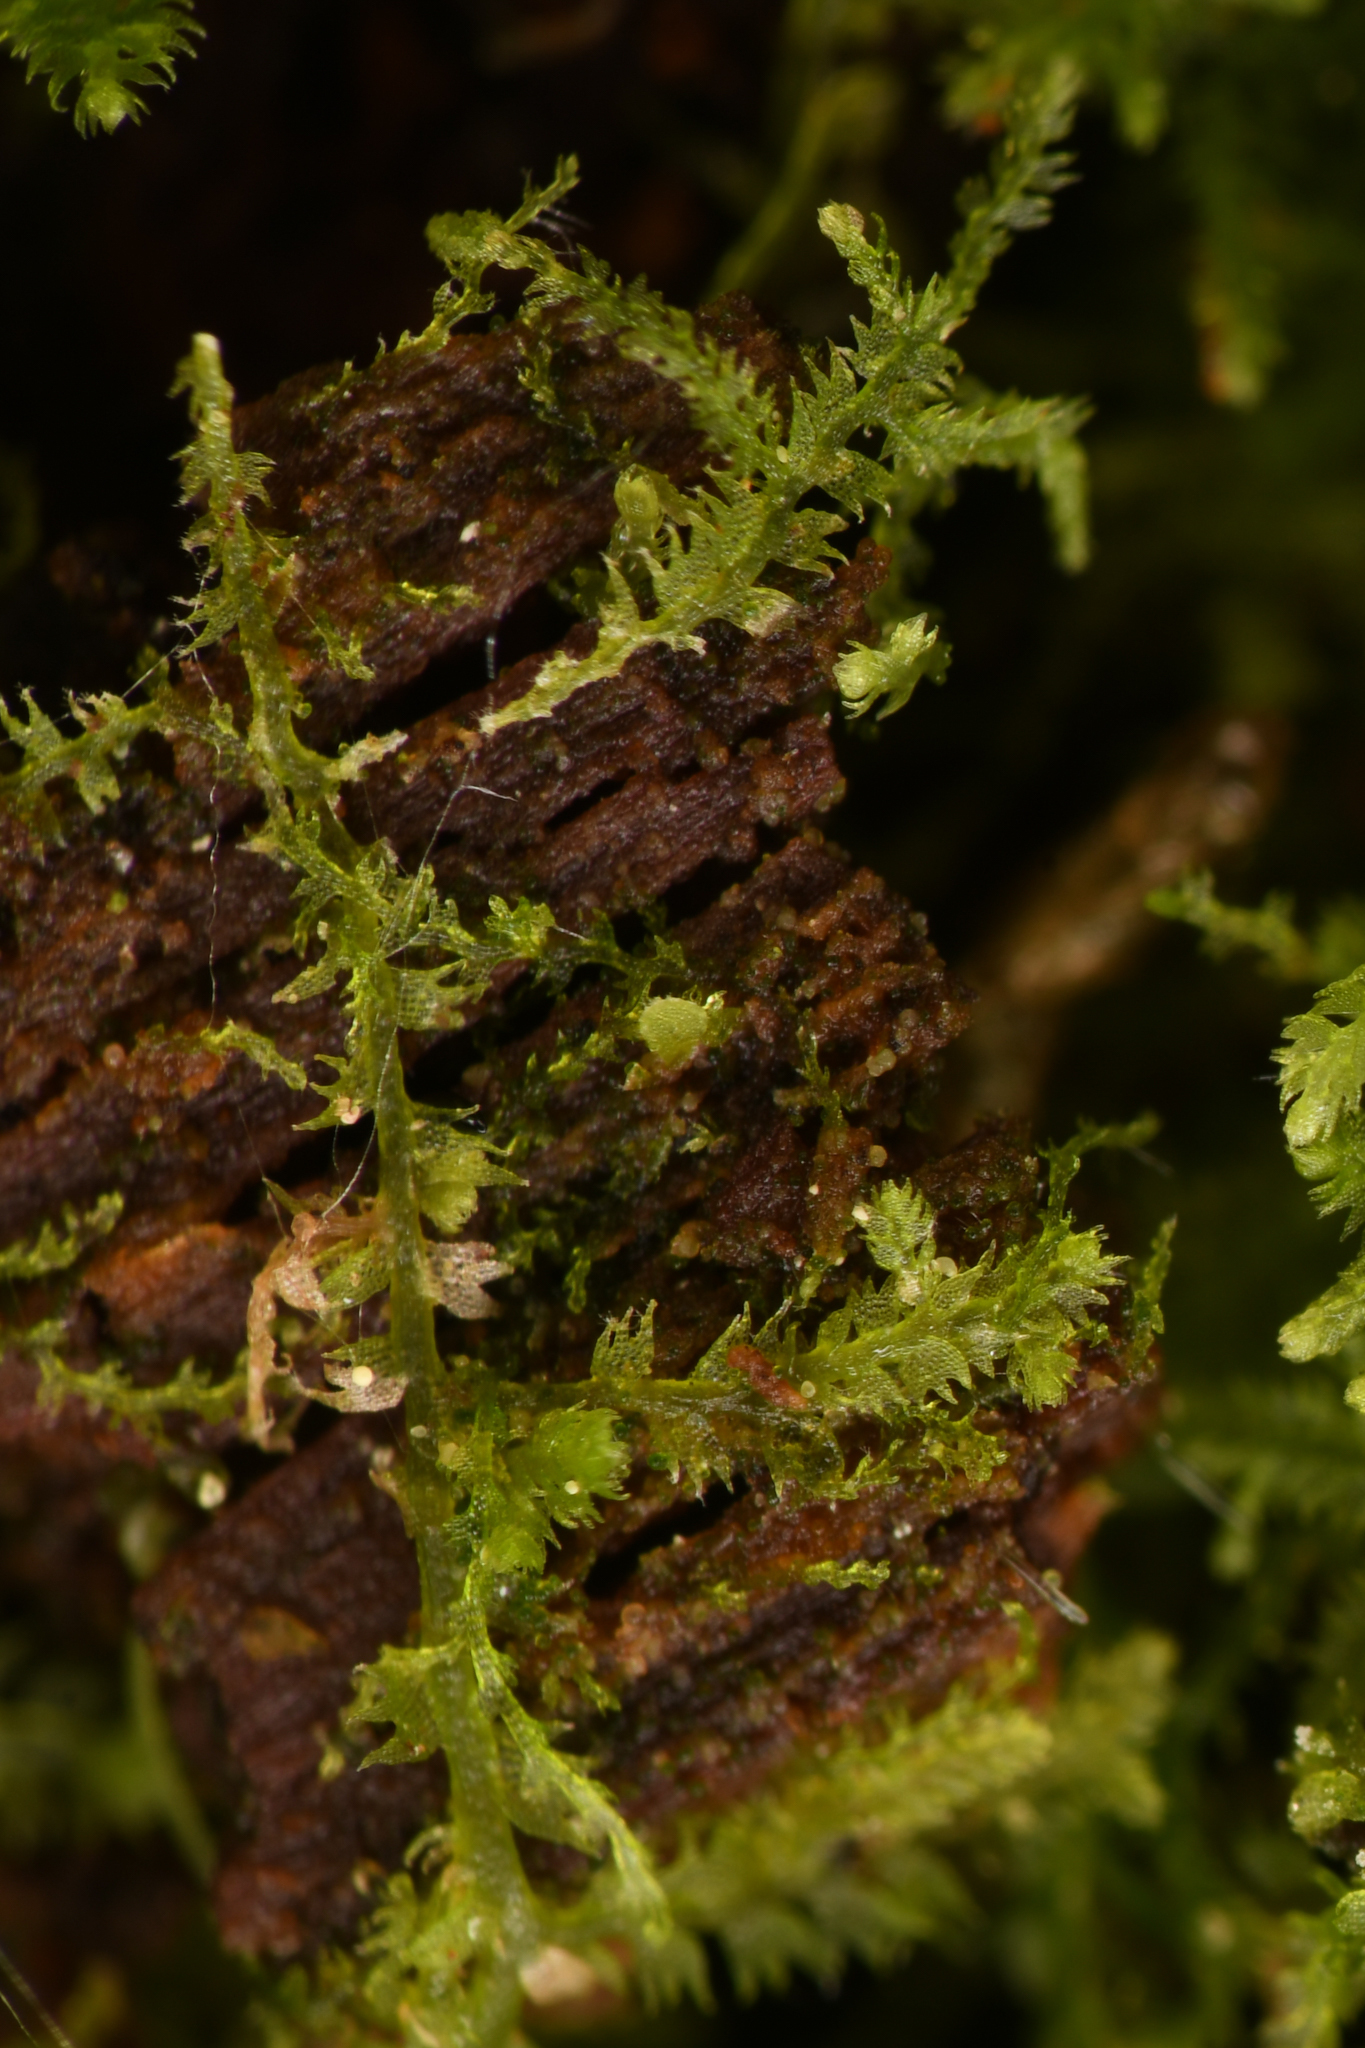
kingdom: Plantae
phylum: Marchantiophyta
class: Jungermanniopsida
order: Jungermanniales
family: Lepidoziaceae
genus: Lepidozia
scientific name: Lepidozia reptans
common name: Creeping fingerwort
